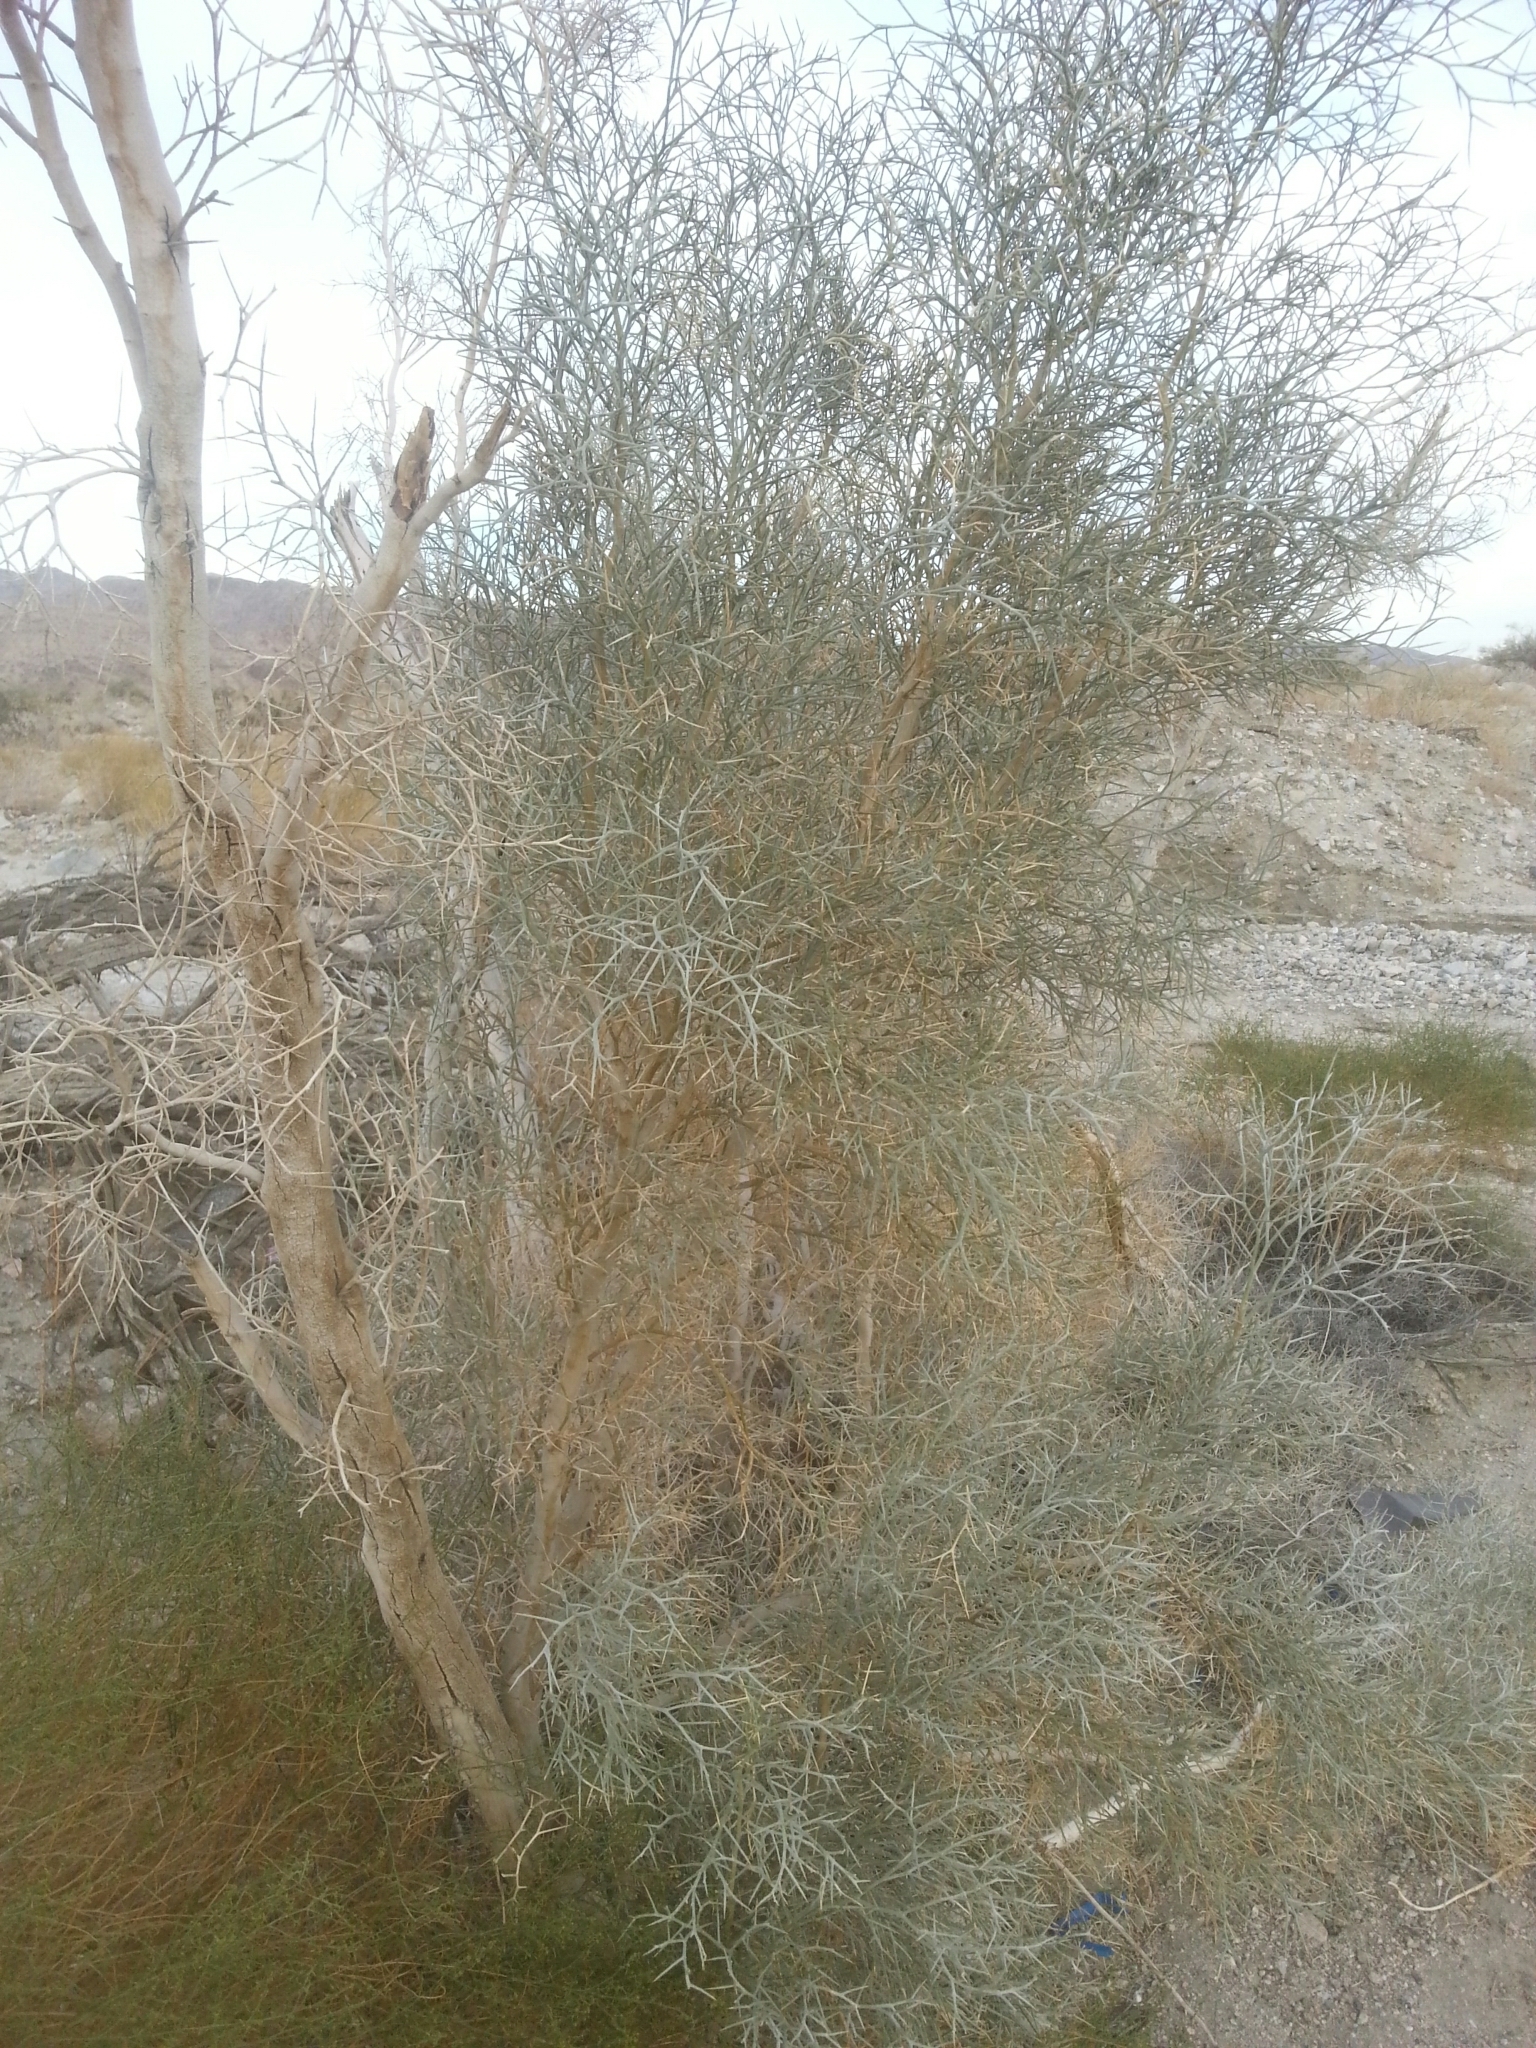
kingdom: Plantae
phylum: Tracheophyta
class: Magnoliopsida
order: Fabales
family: Fabaceae
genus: Psorothamnus
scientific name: Psorothamnus spinosus
